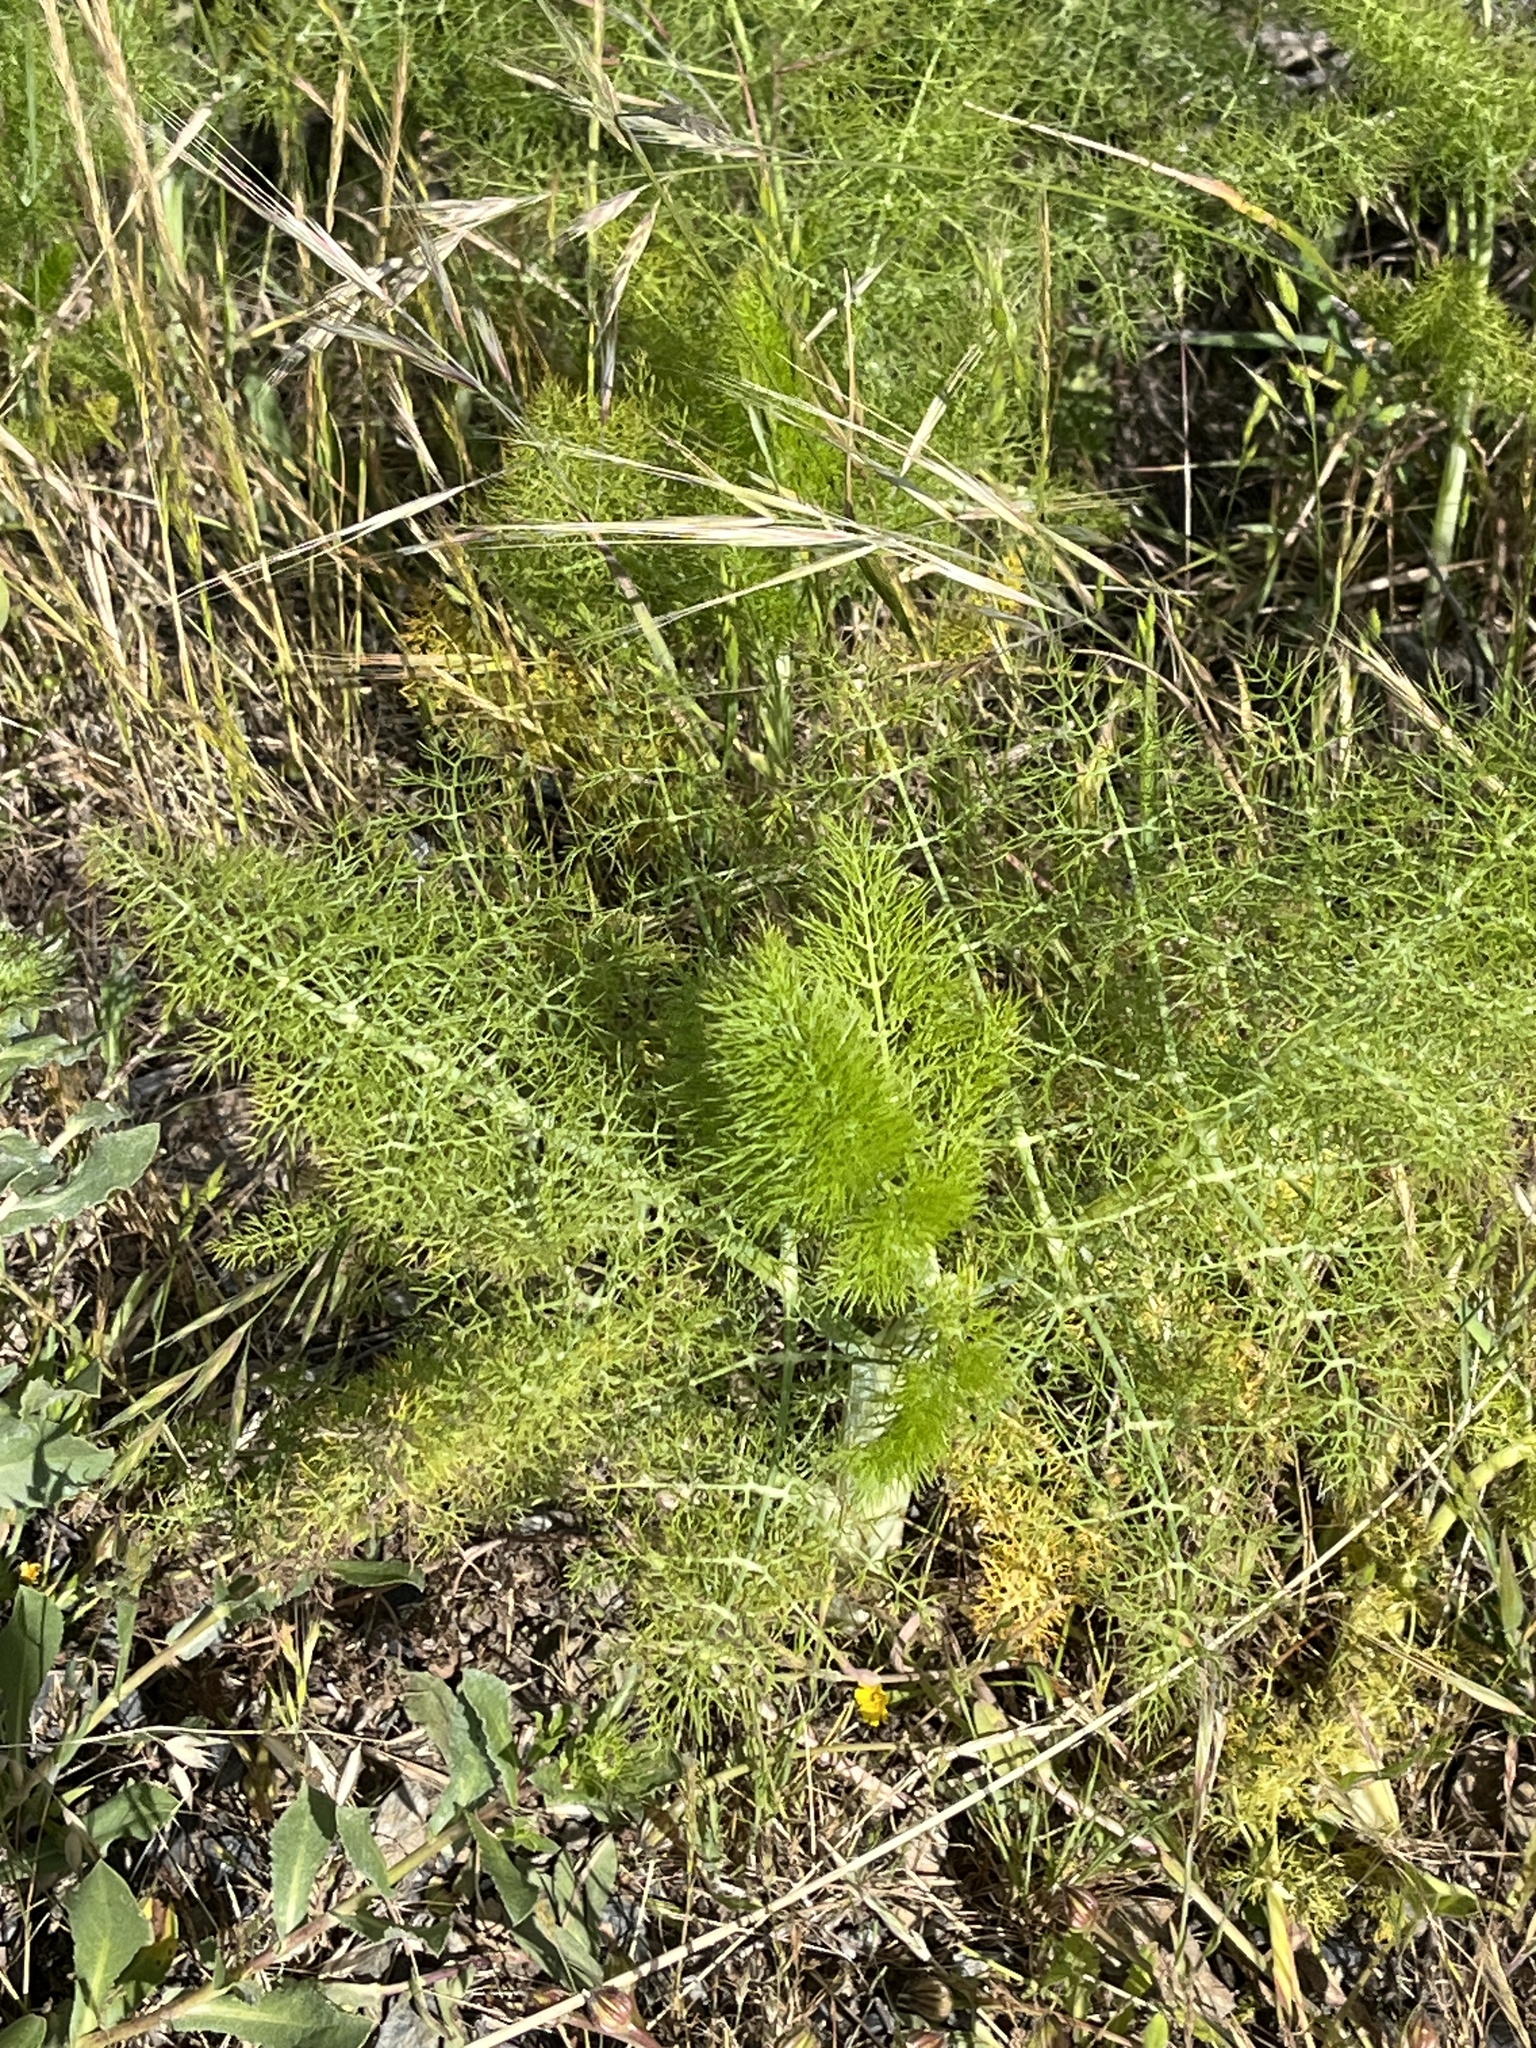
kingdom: Plantae
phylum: Tracheophyta
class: Magnoliopsida
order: Apiales
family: Apiaceae
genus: Foeniculum
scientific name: Foeniculum vulgare
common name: Fennel
